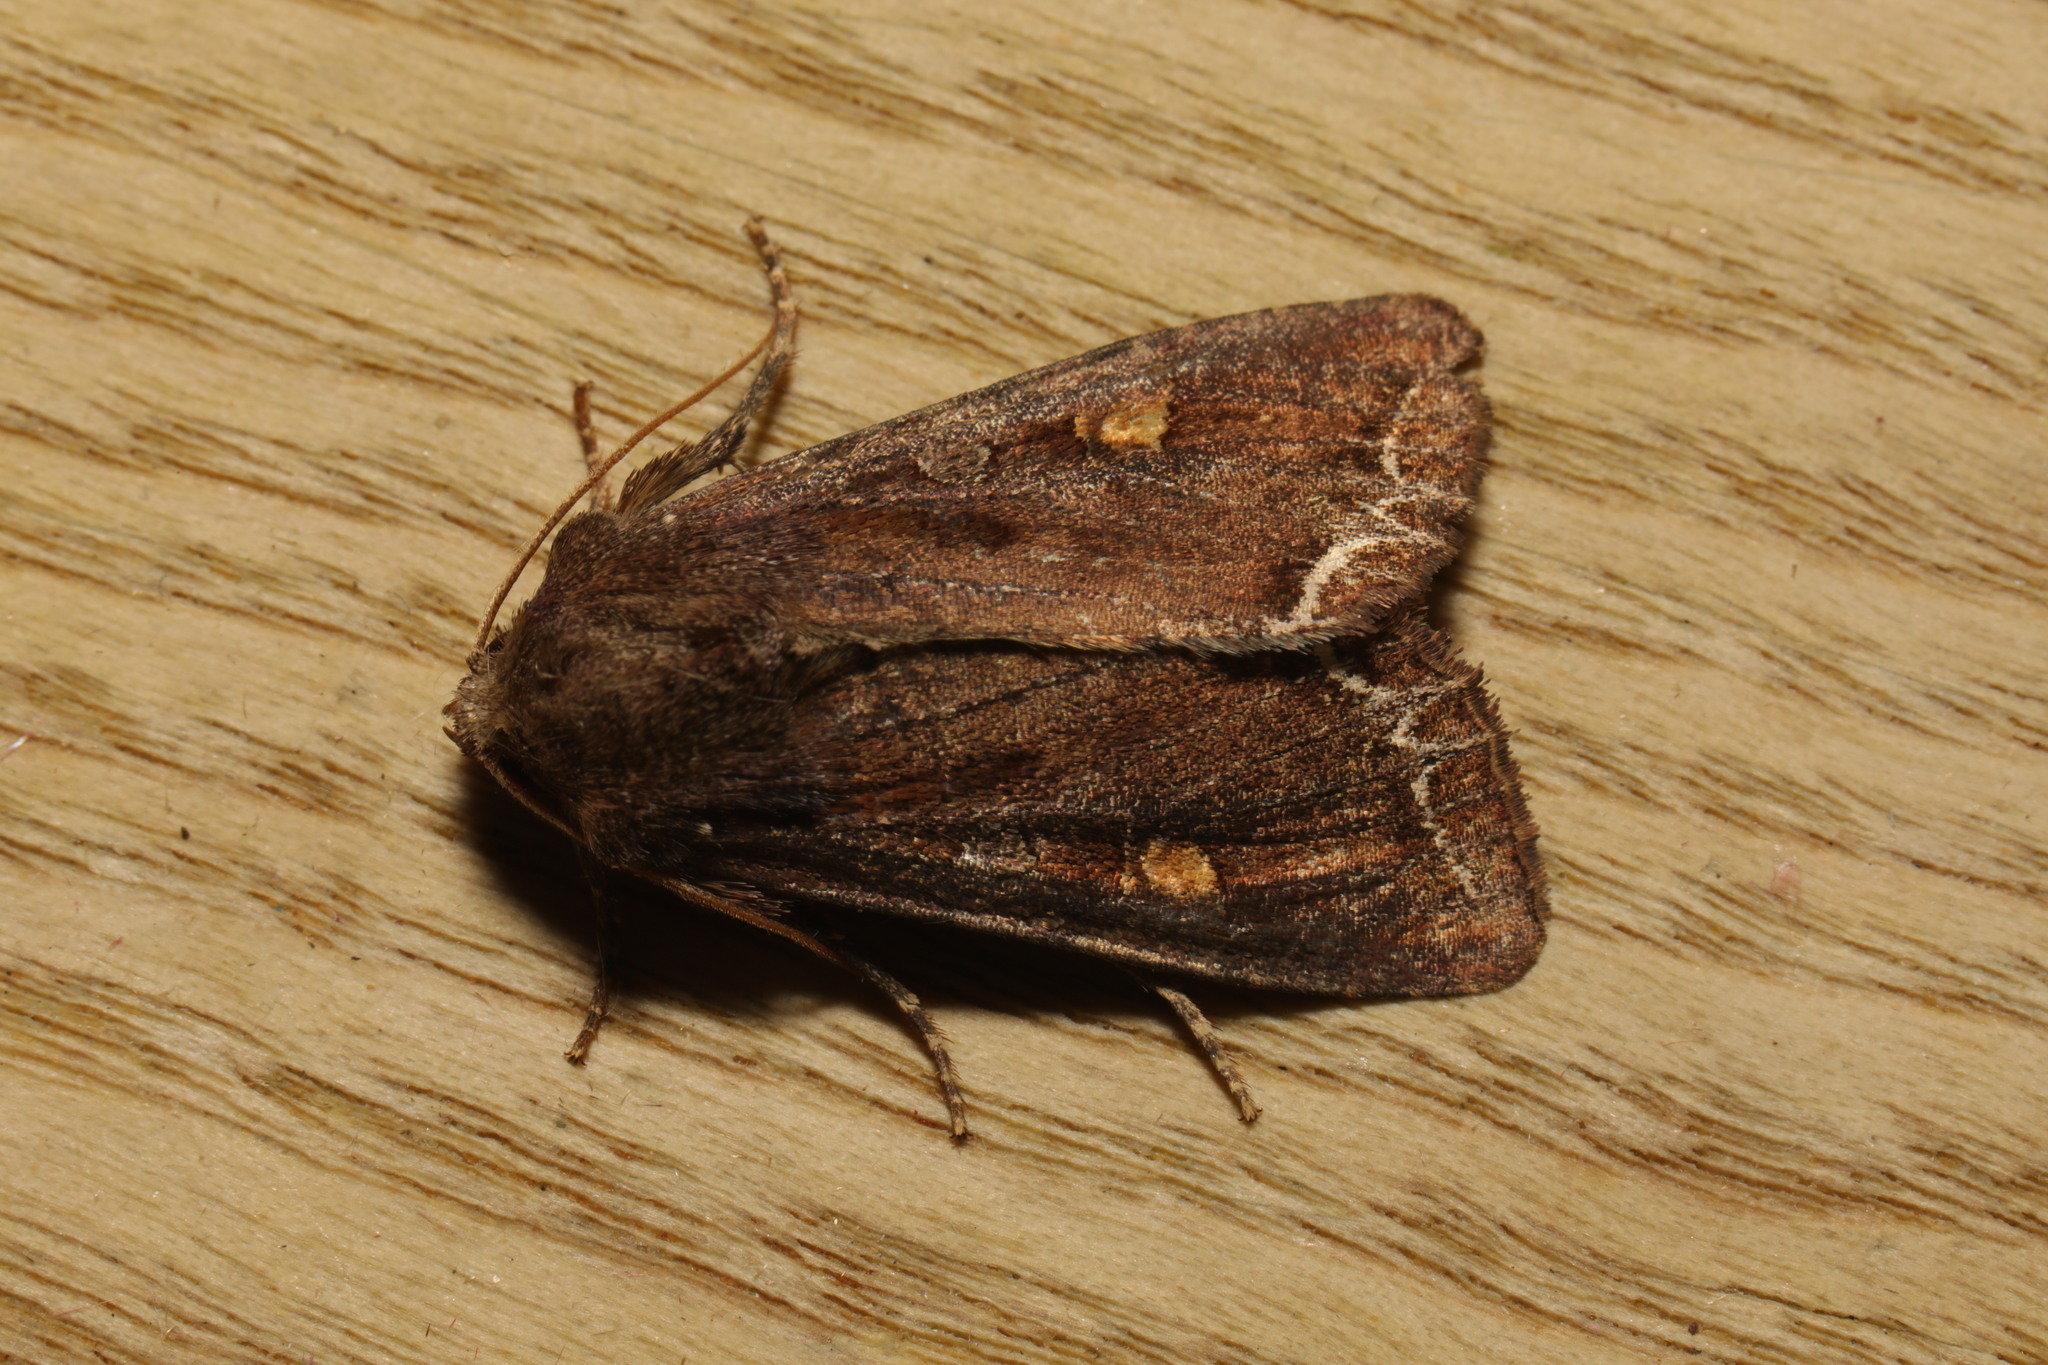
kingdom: Animalia
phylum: Arthropoda
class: Insecta
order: Lepidoptera
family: Noctuidae
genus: Lacanobia
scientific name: Lacanobia oleracea
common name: Bright-line brown-eye
